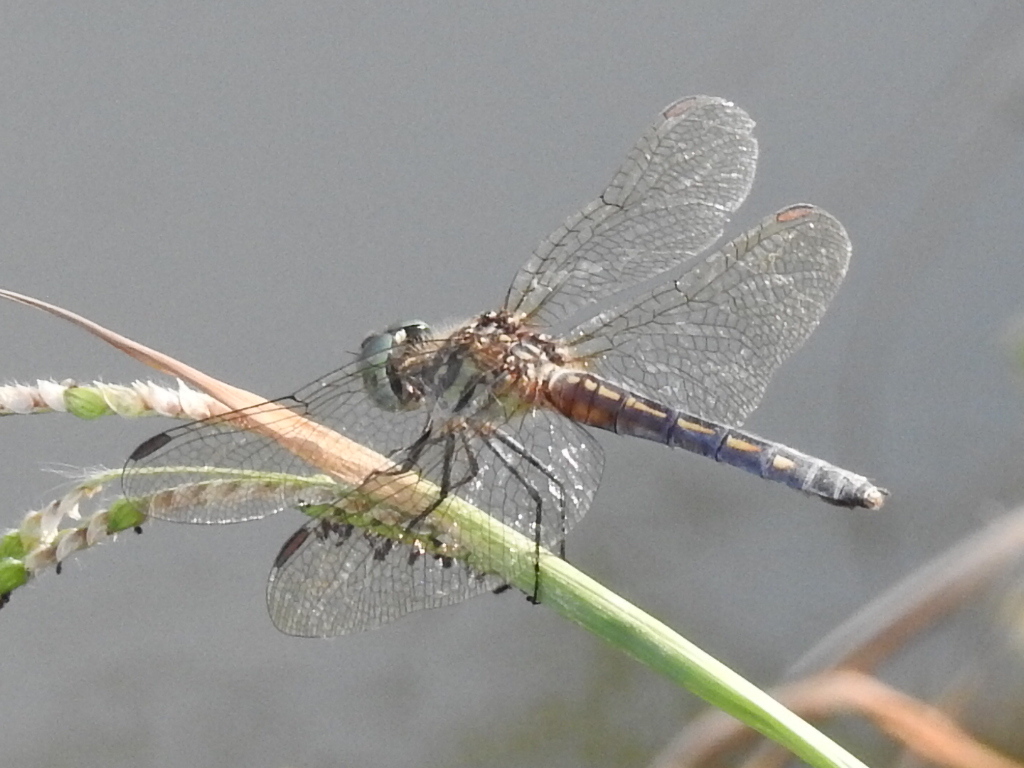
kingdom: Animalia
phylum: Arthropoda
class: Insecta
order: Odonata
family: Libellulidae
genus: Pachydiplax
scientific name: Pachydiplax longipennis
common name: Blue dasher
